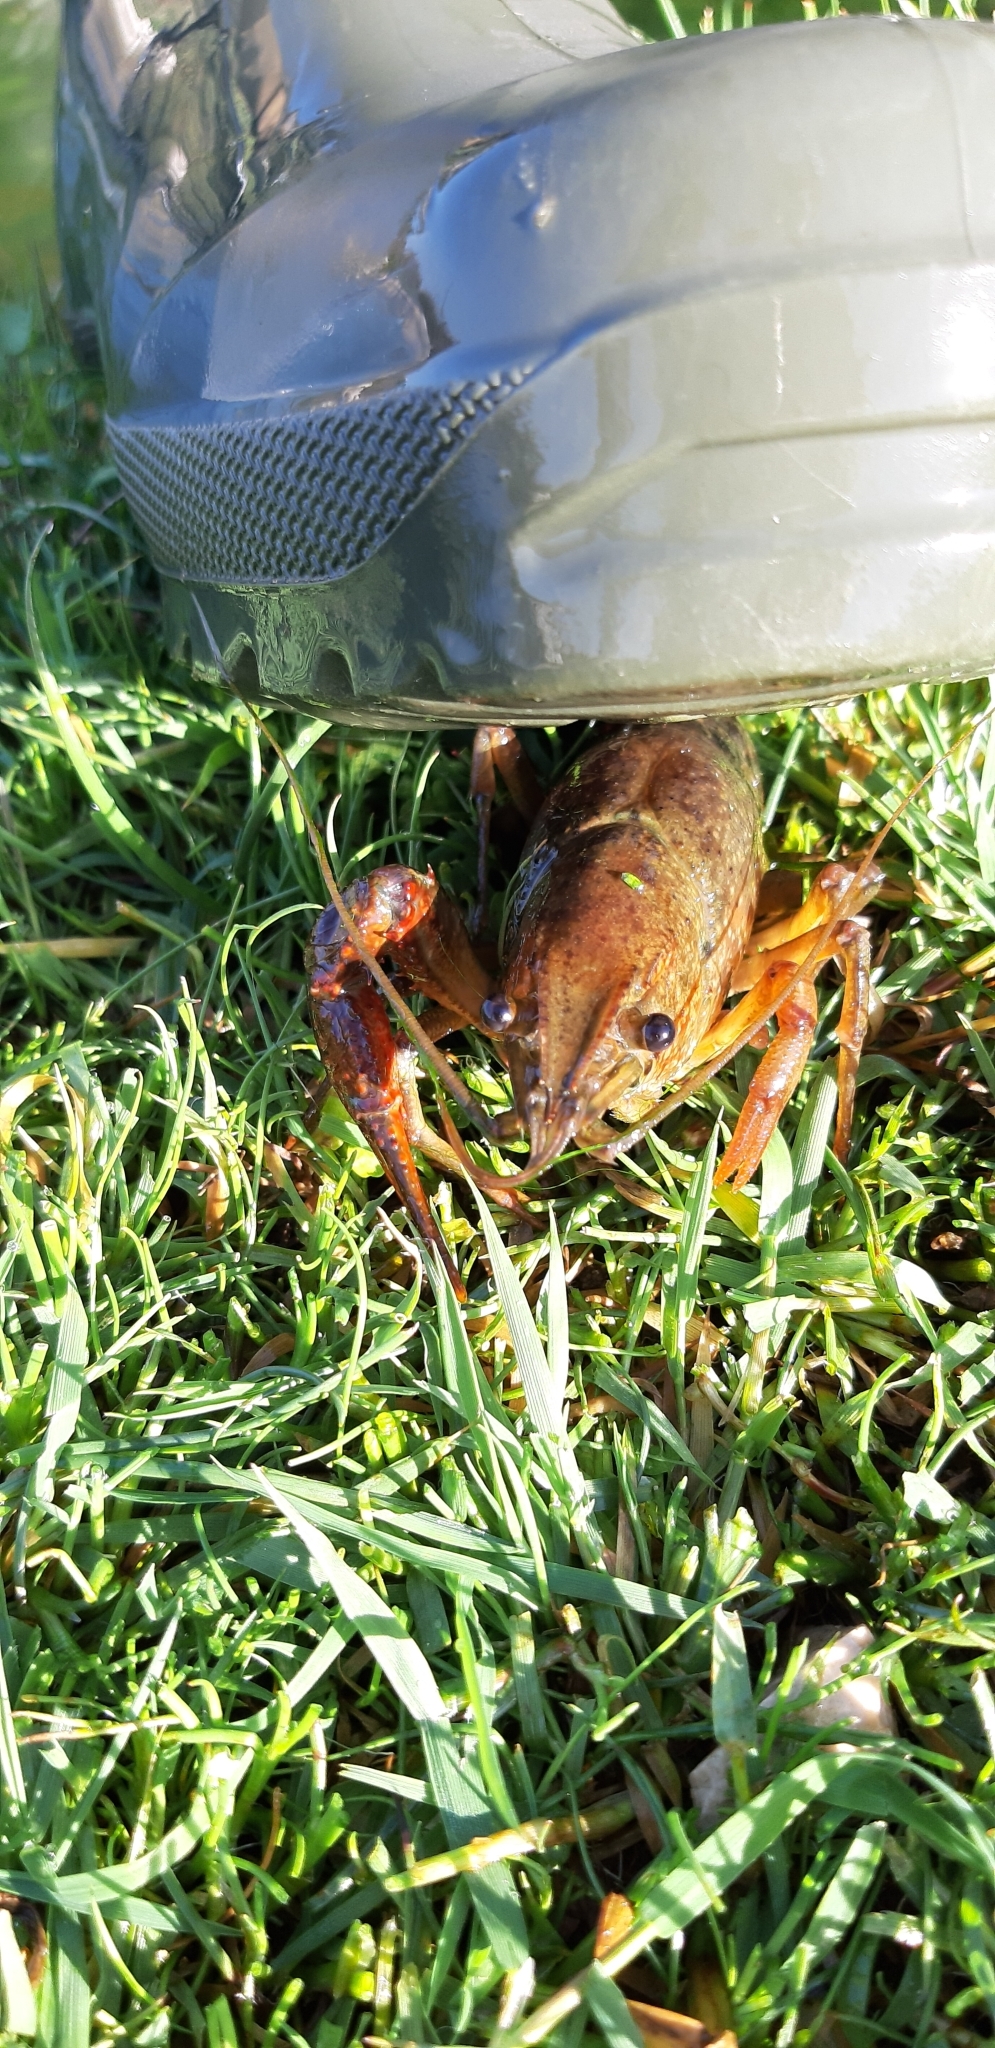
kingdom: Animalia
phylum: Arthropoda
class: Malacostraca
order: Decapoda
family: Cambaridae
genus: Procambarus
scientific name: Procambarus clarkii
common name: Red swamp crayfish
